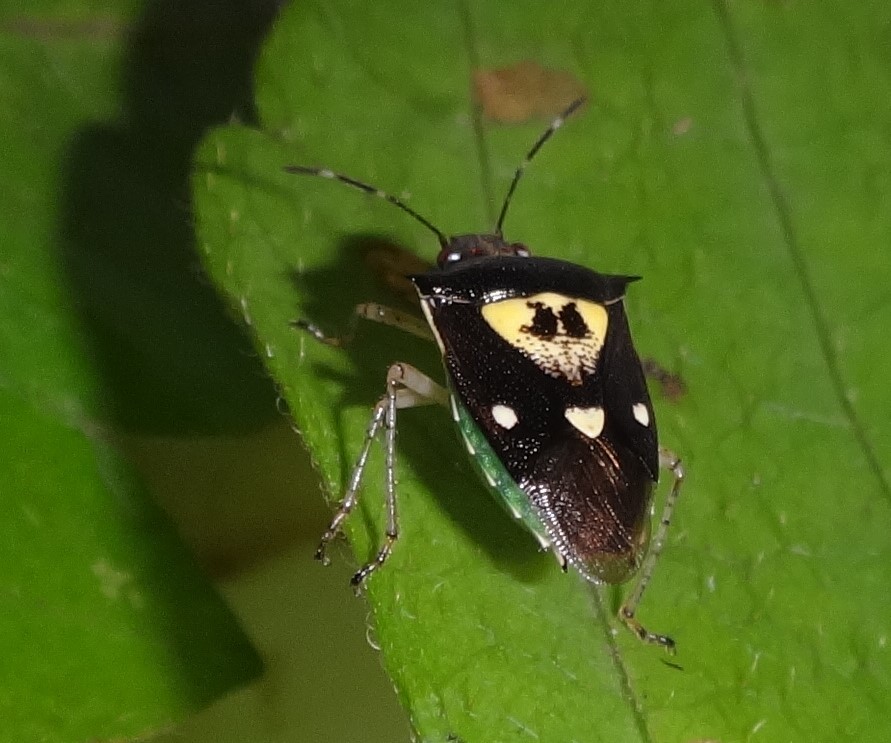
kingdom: Animalia
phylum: Arthropoda
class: Insecta
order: Hemiptera
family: Pentatomidae
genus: Mormidea
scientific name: Mormidea ypsilon
